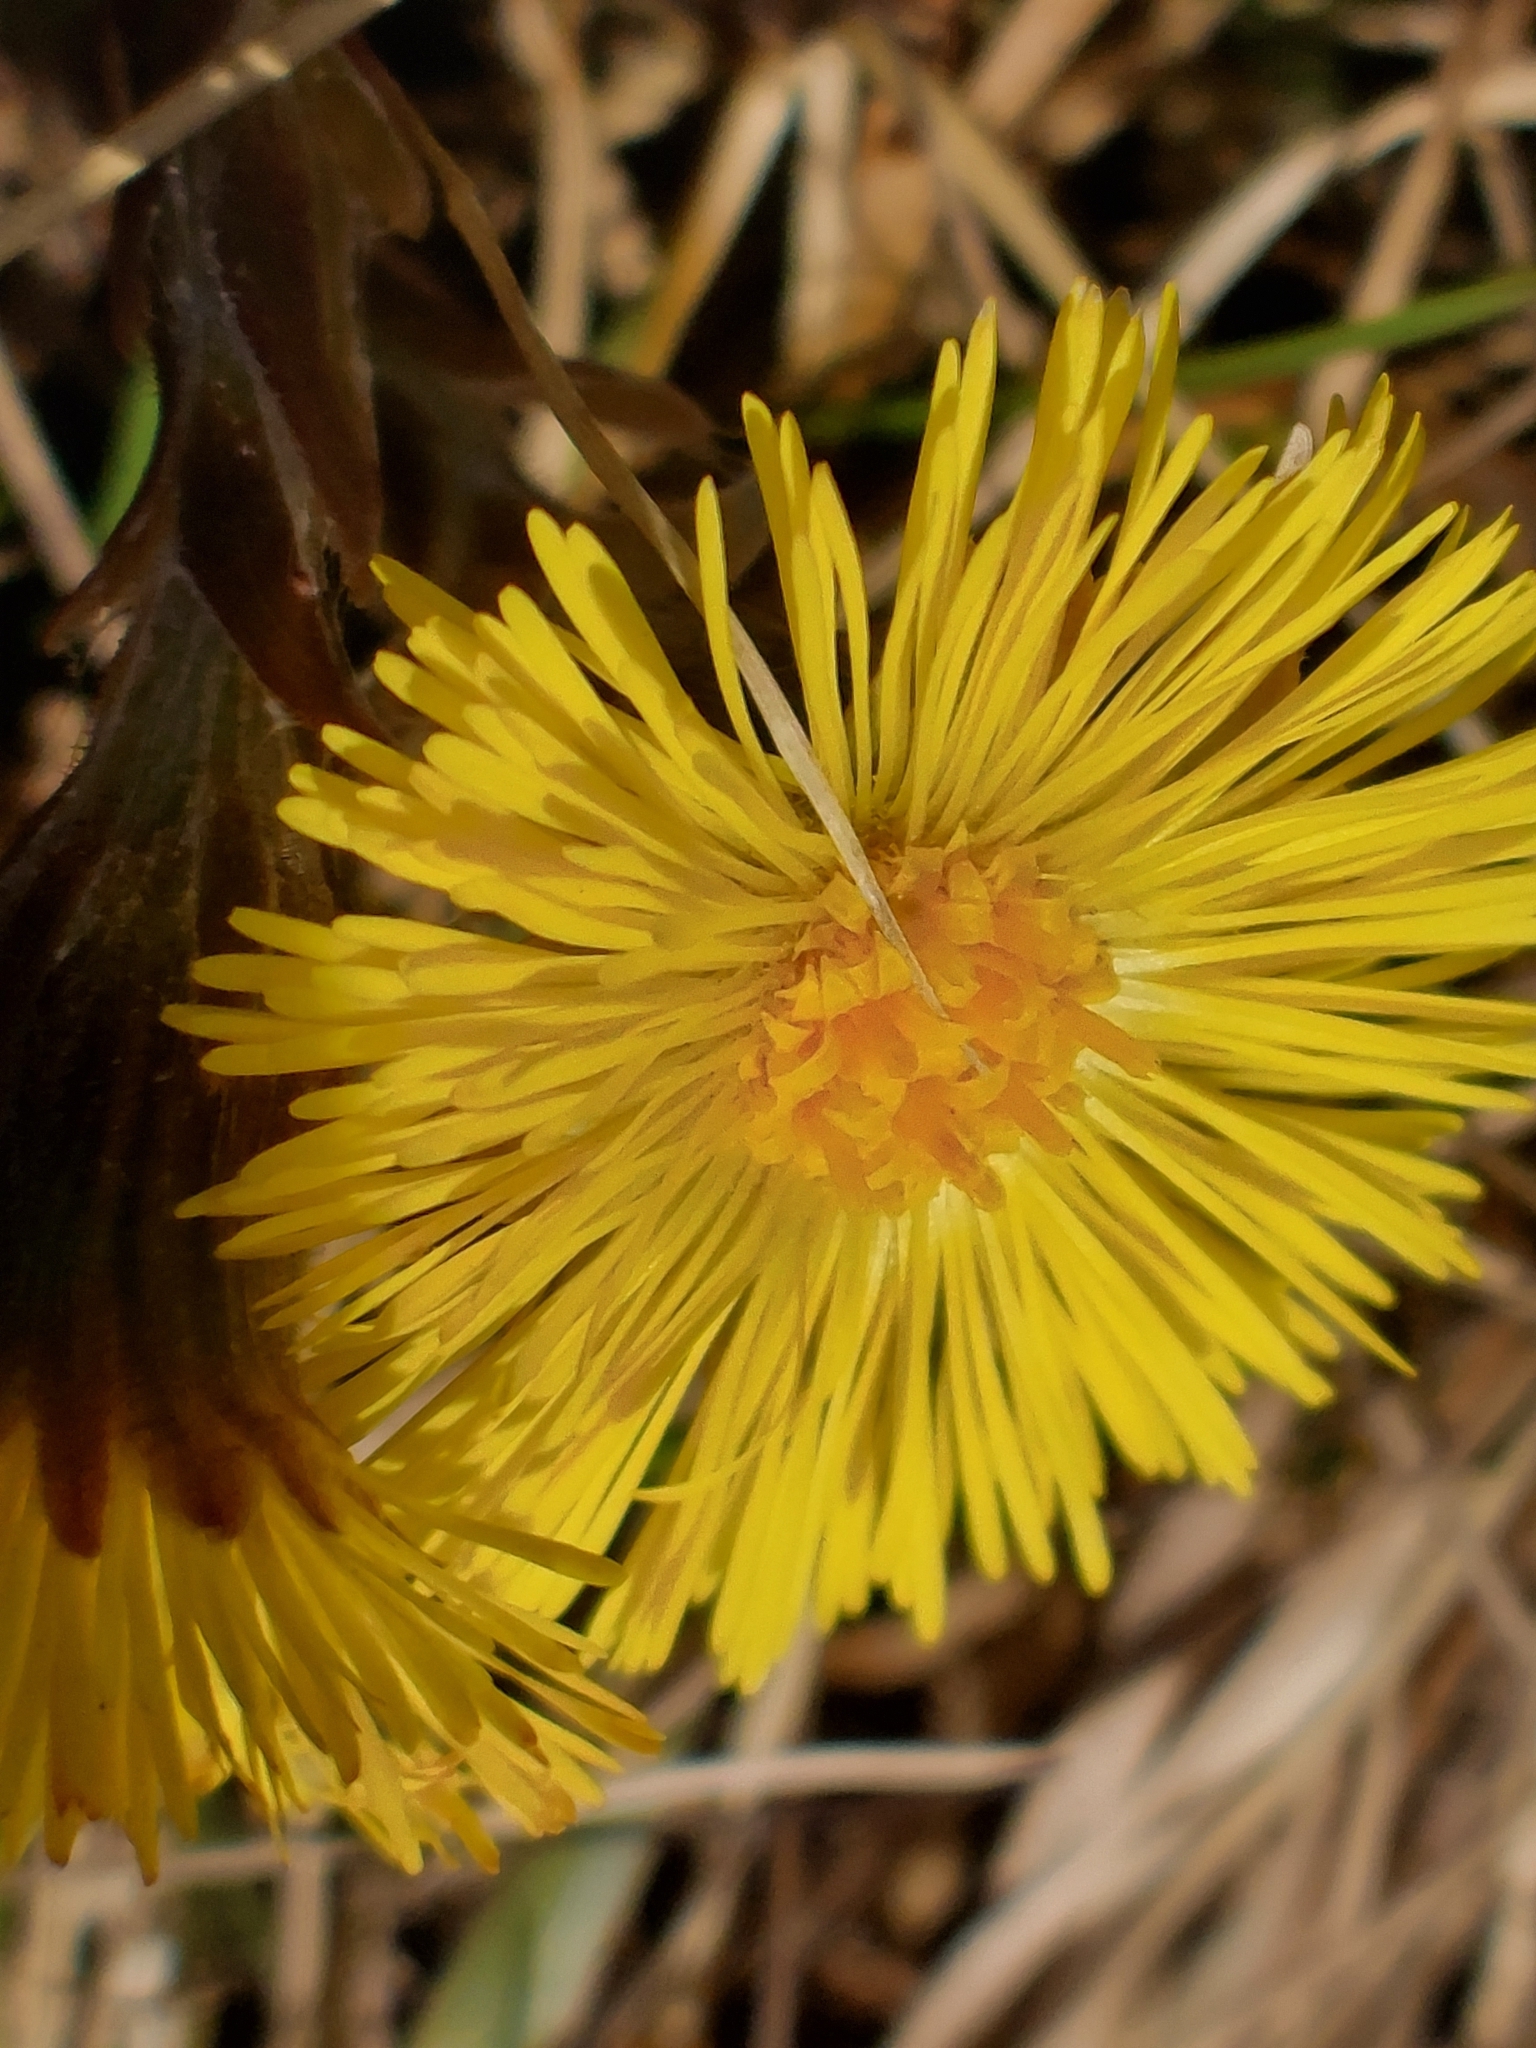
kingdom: Plantae
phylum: Tracheophyta
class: Magnoliopsida
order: Asterales
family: Asteraceae
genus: Tussilago
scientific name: Tussilago farfara
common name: Coltsfoot
